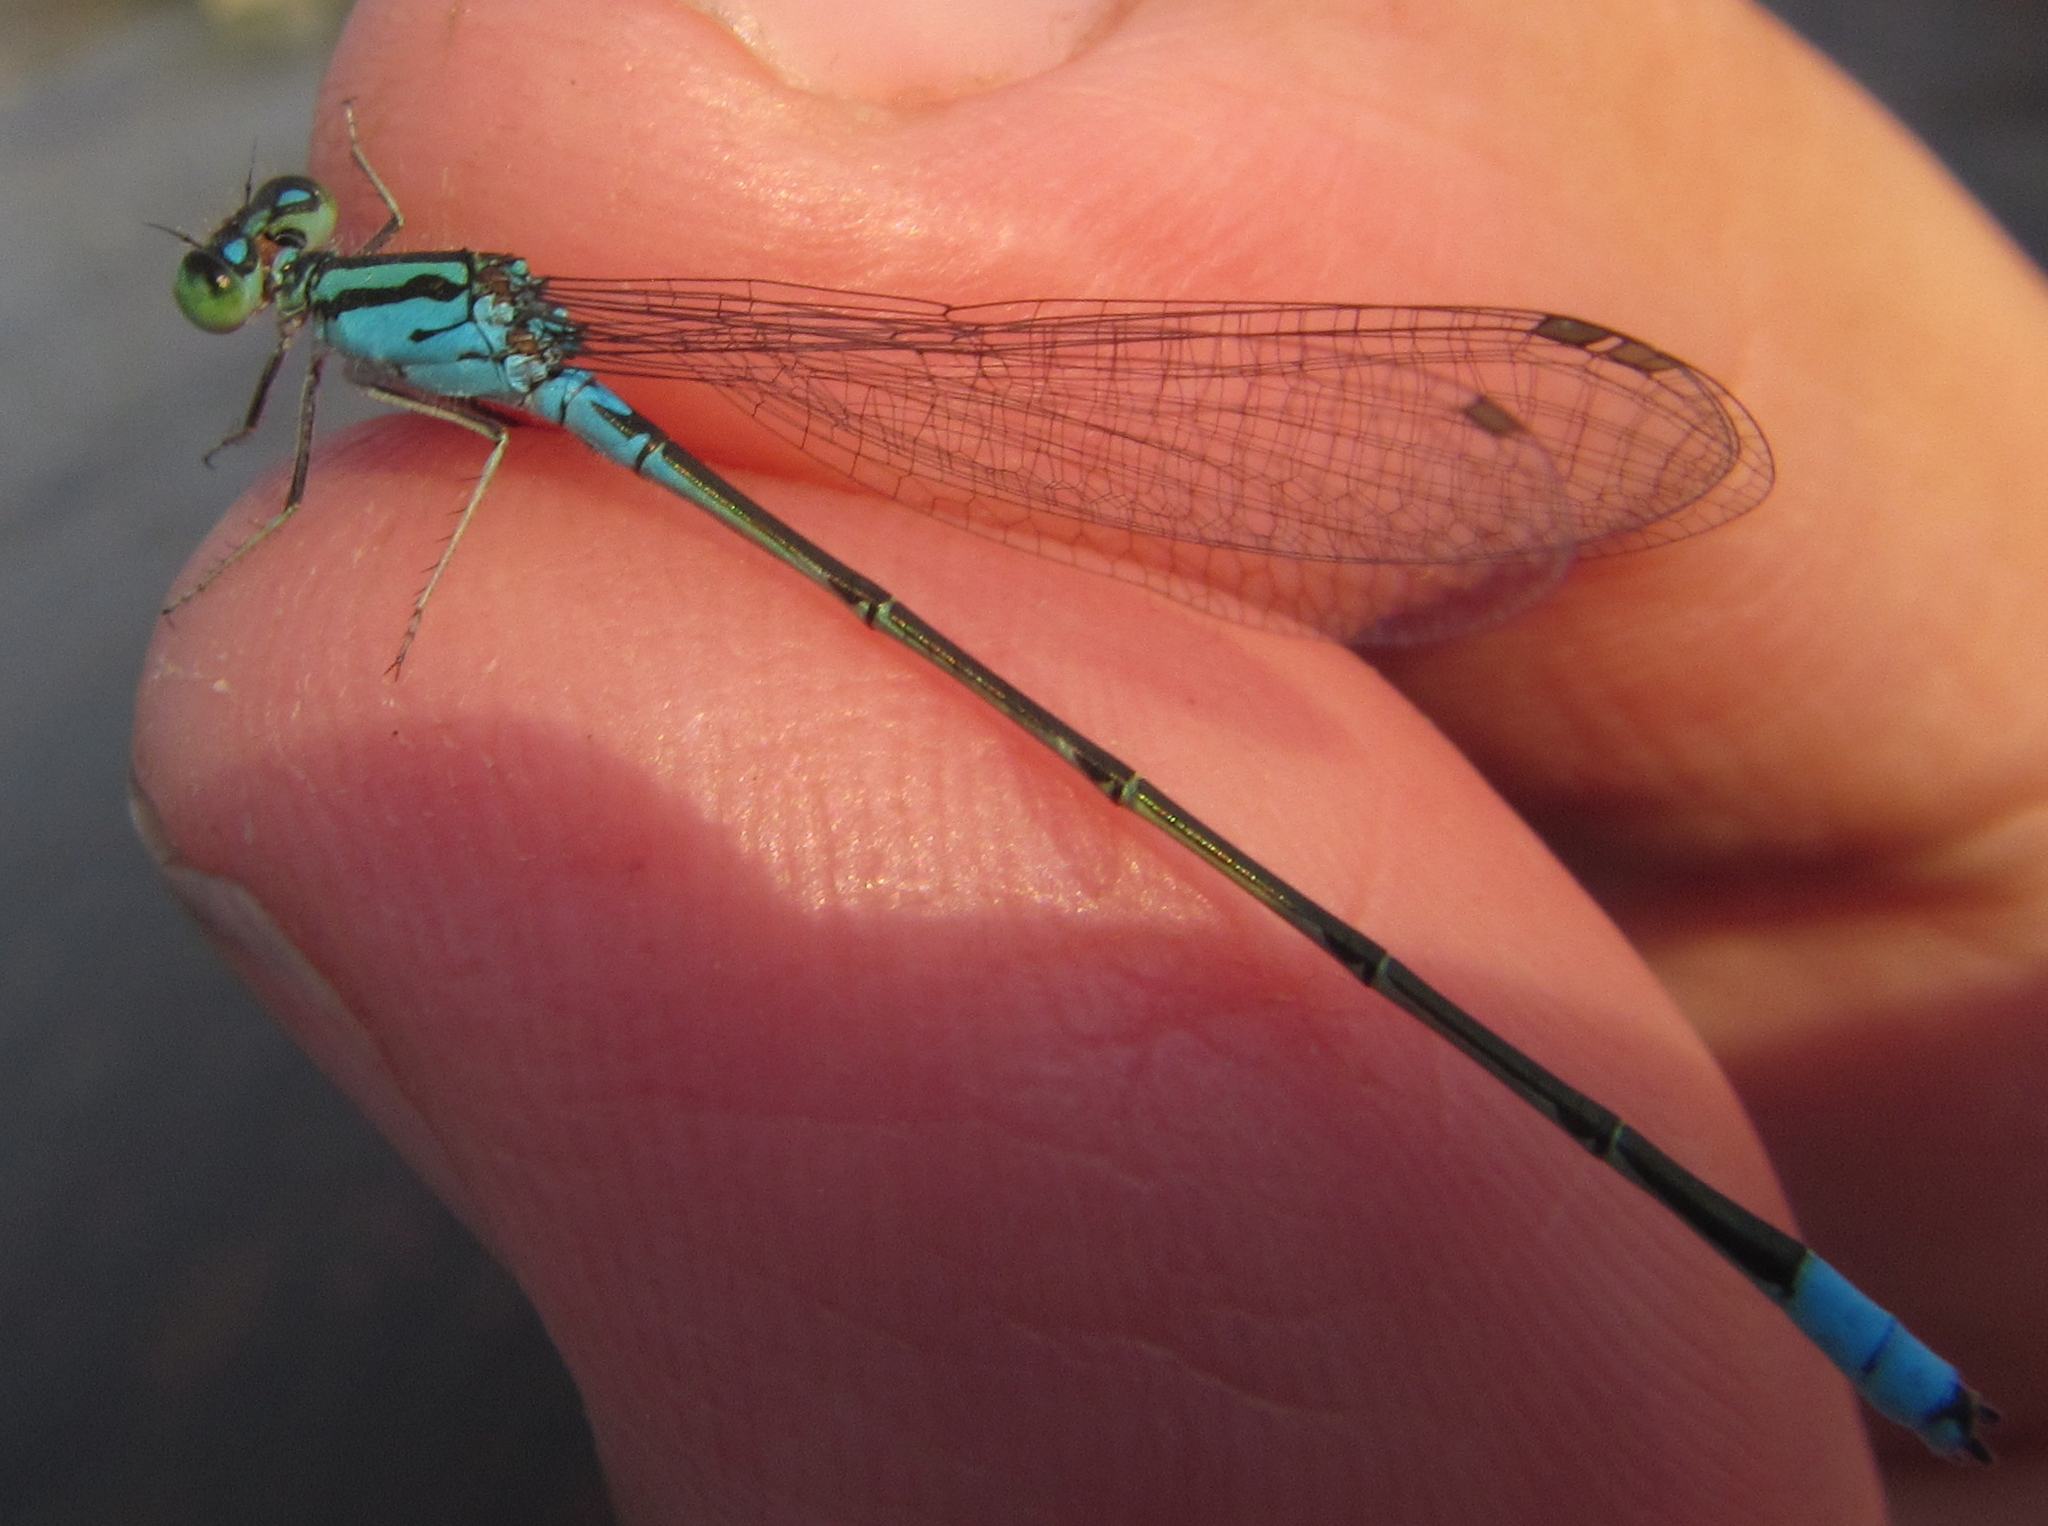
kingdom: Animalia
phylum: Arthropoda
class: Insecta
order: Odonata
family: Coenagrionidae
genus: Pseudagrion
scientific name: Pseudagrion coeleste
